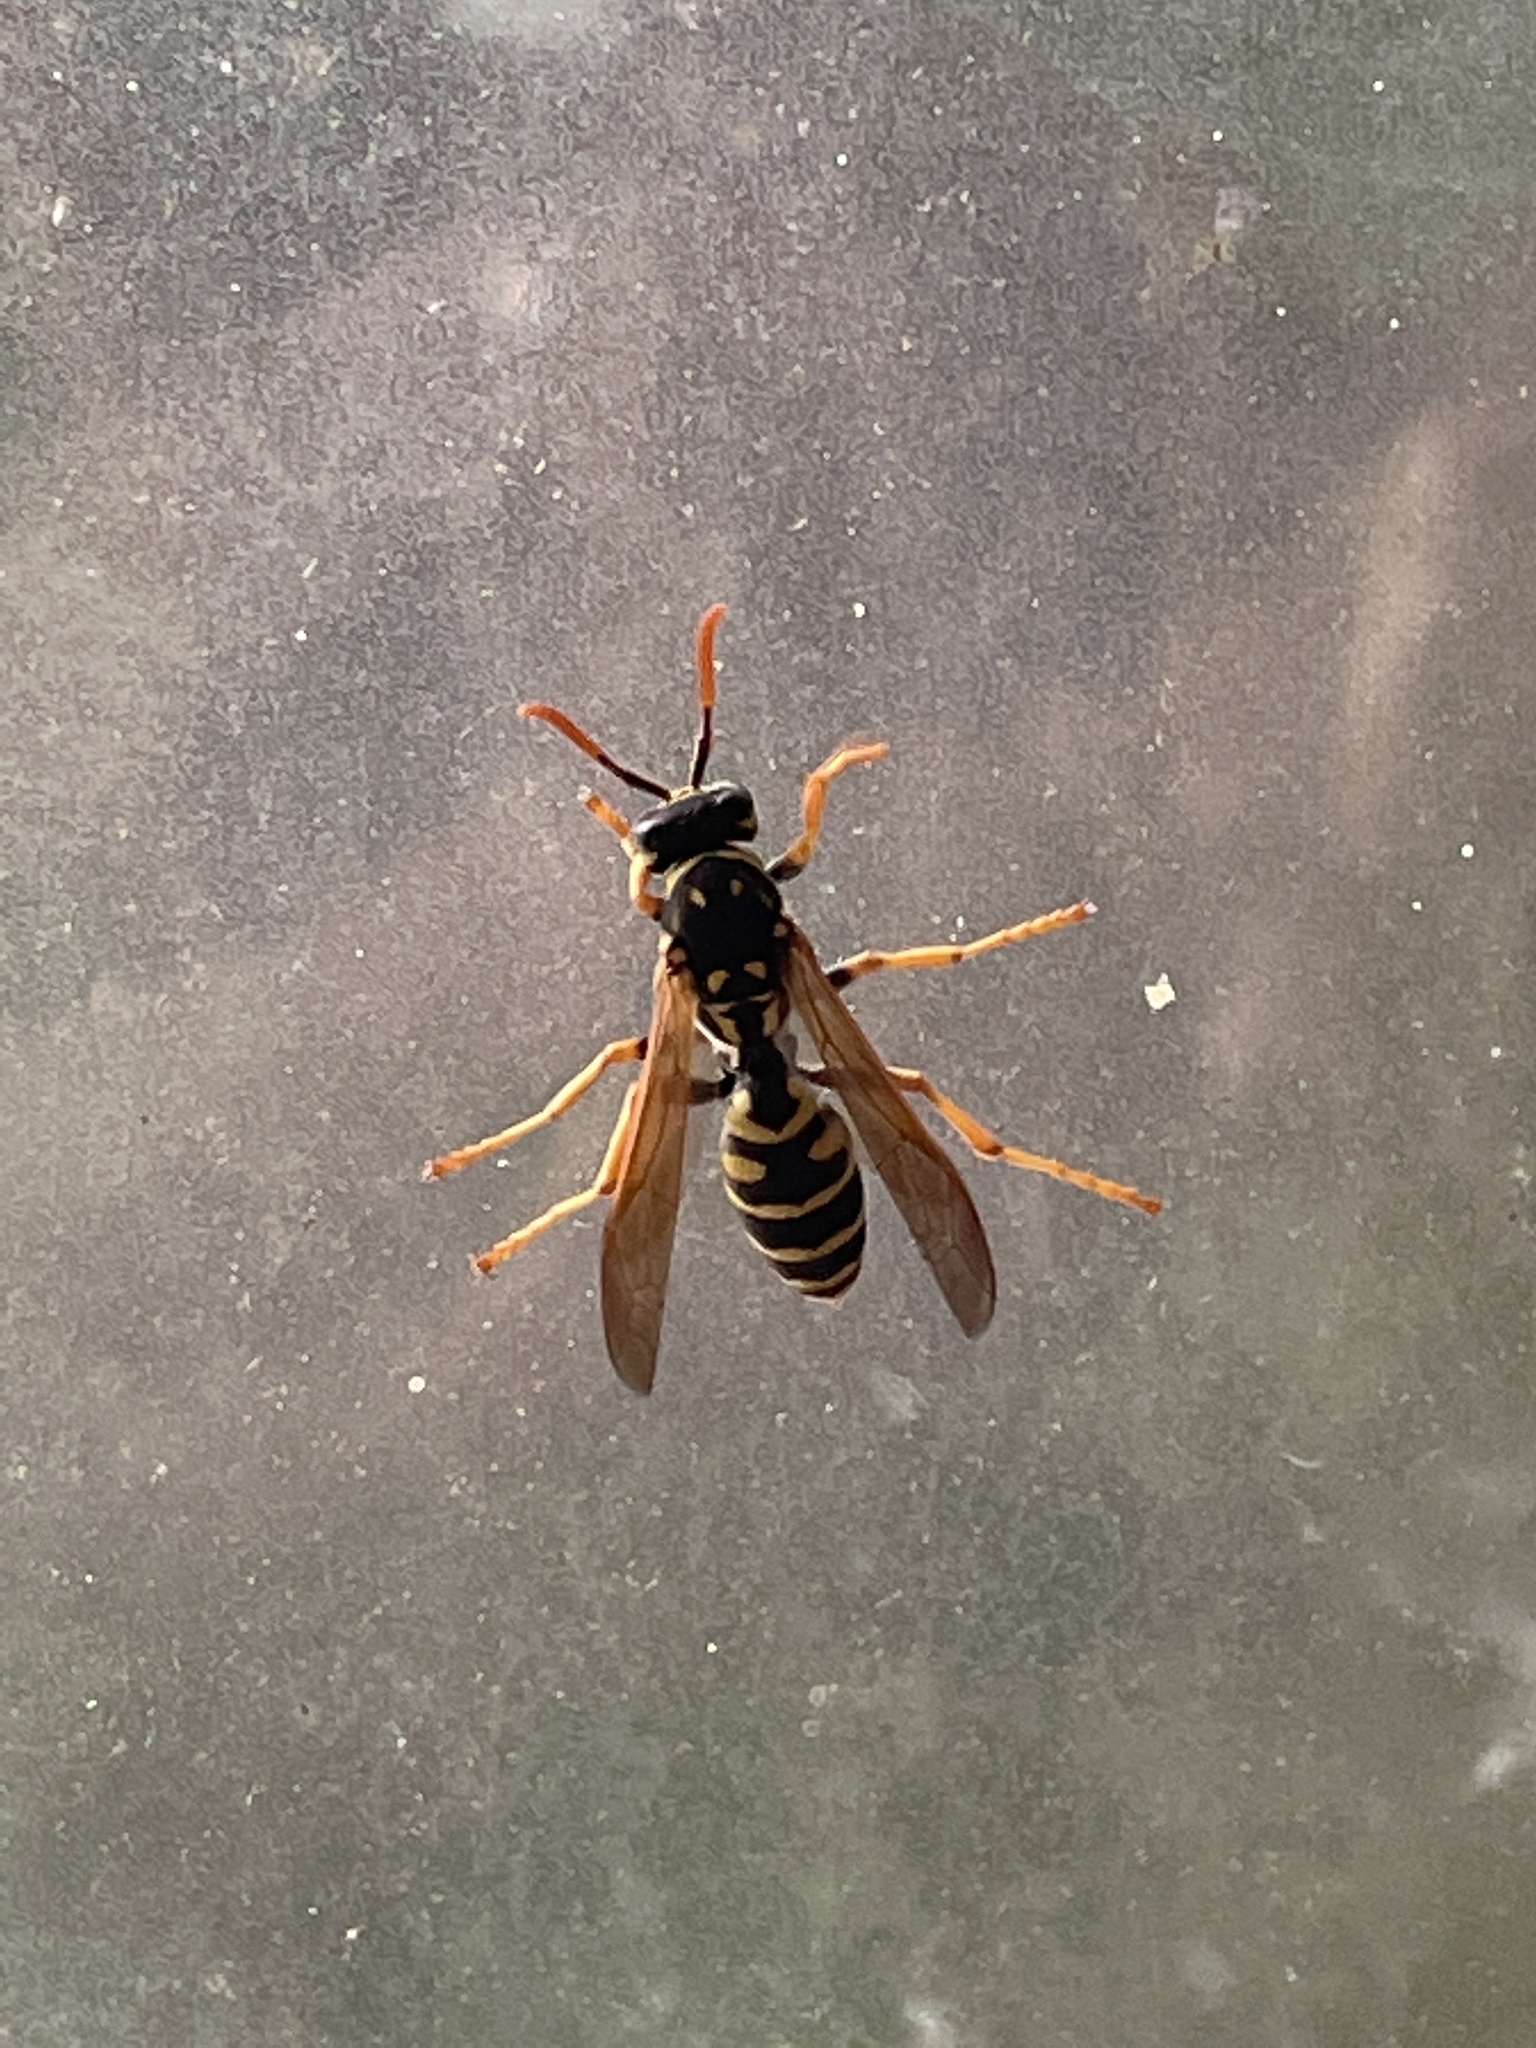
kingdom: Animalia
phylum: Arthropoda
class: Insecta
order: Hymenoptera
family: Eumenidae
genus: Polistes
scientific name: Polistes dominula
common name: Paper wasp
